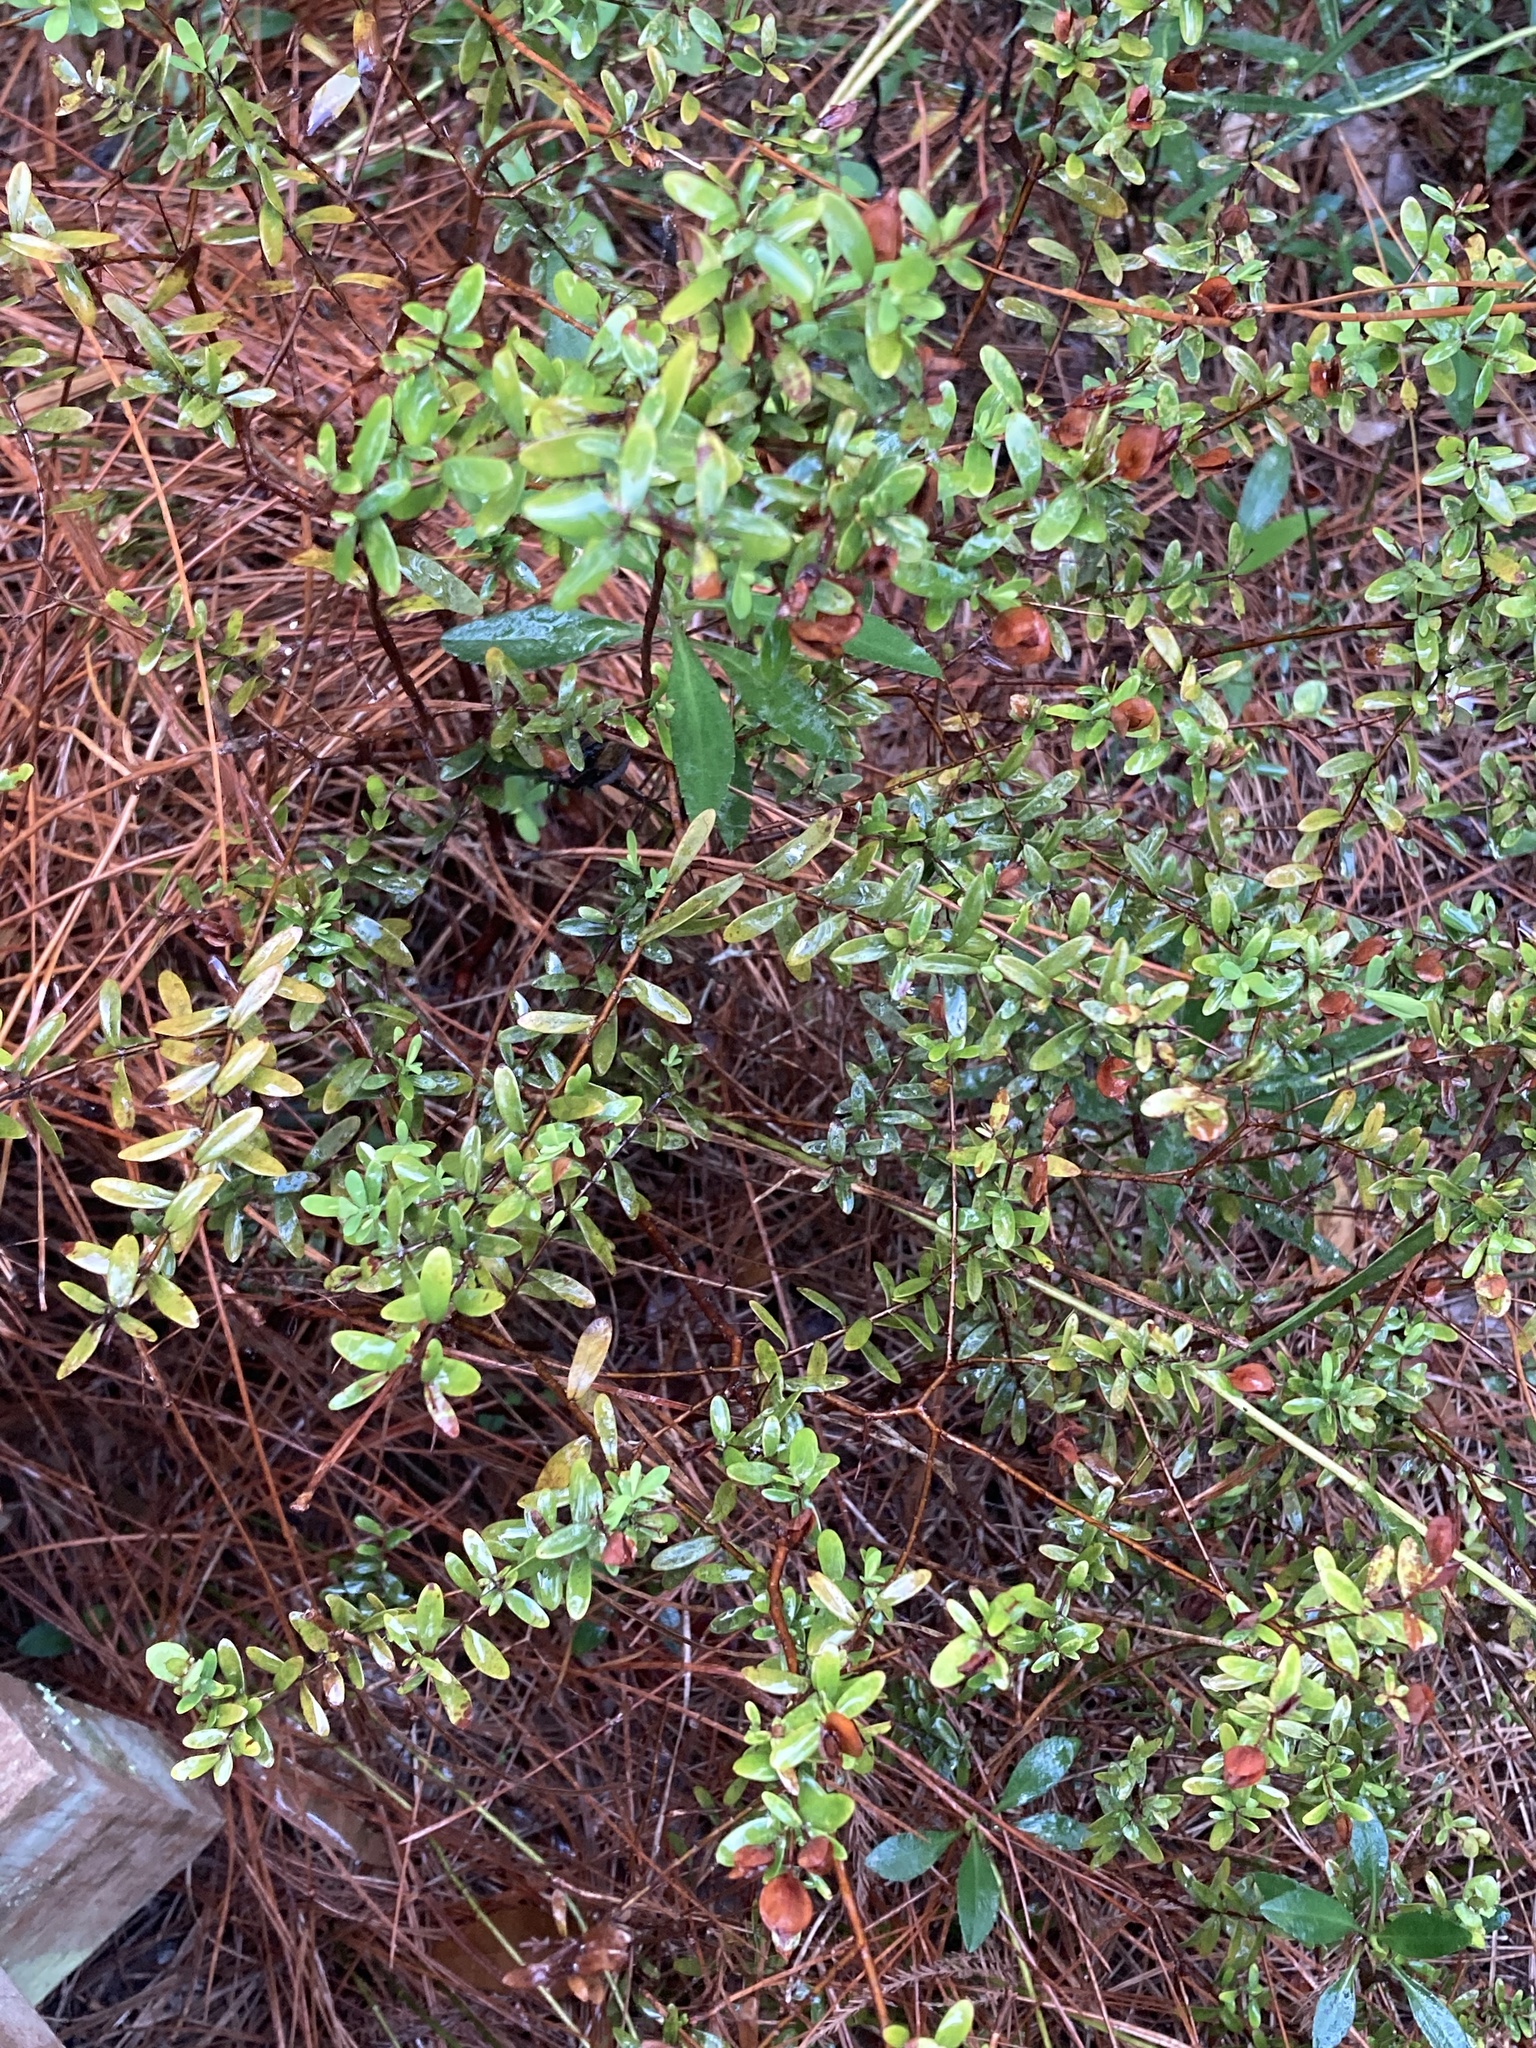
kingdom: Plantae
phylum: Tracheophyta
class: Magnoliopsida
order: Malpighiales
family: Hypericaceae
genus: Hypericum
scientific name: Hypericum hypericoides
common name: St. andrew's cross
